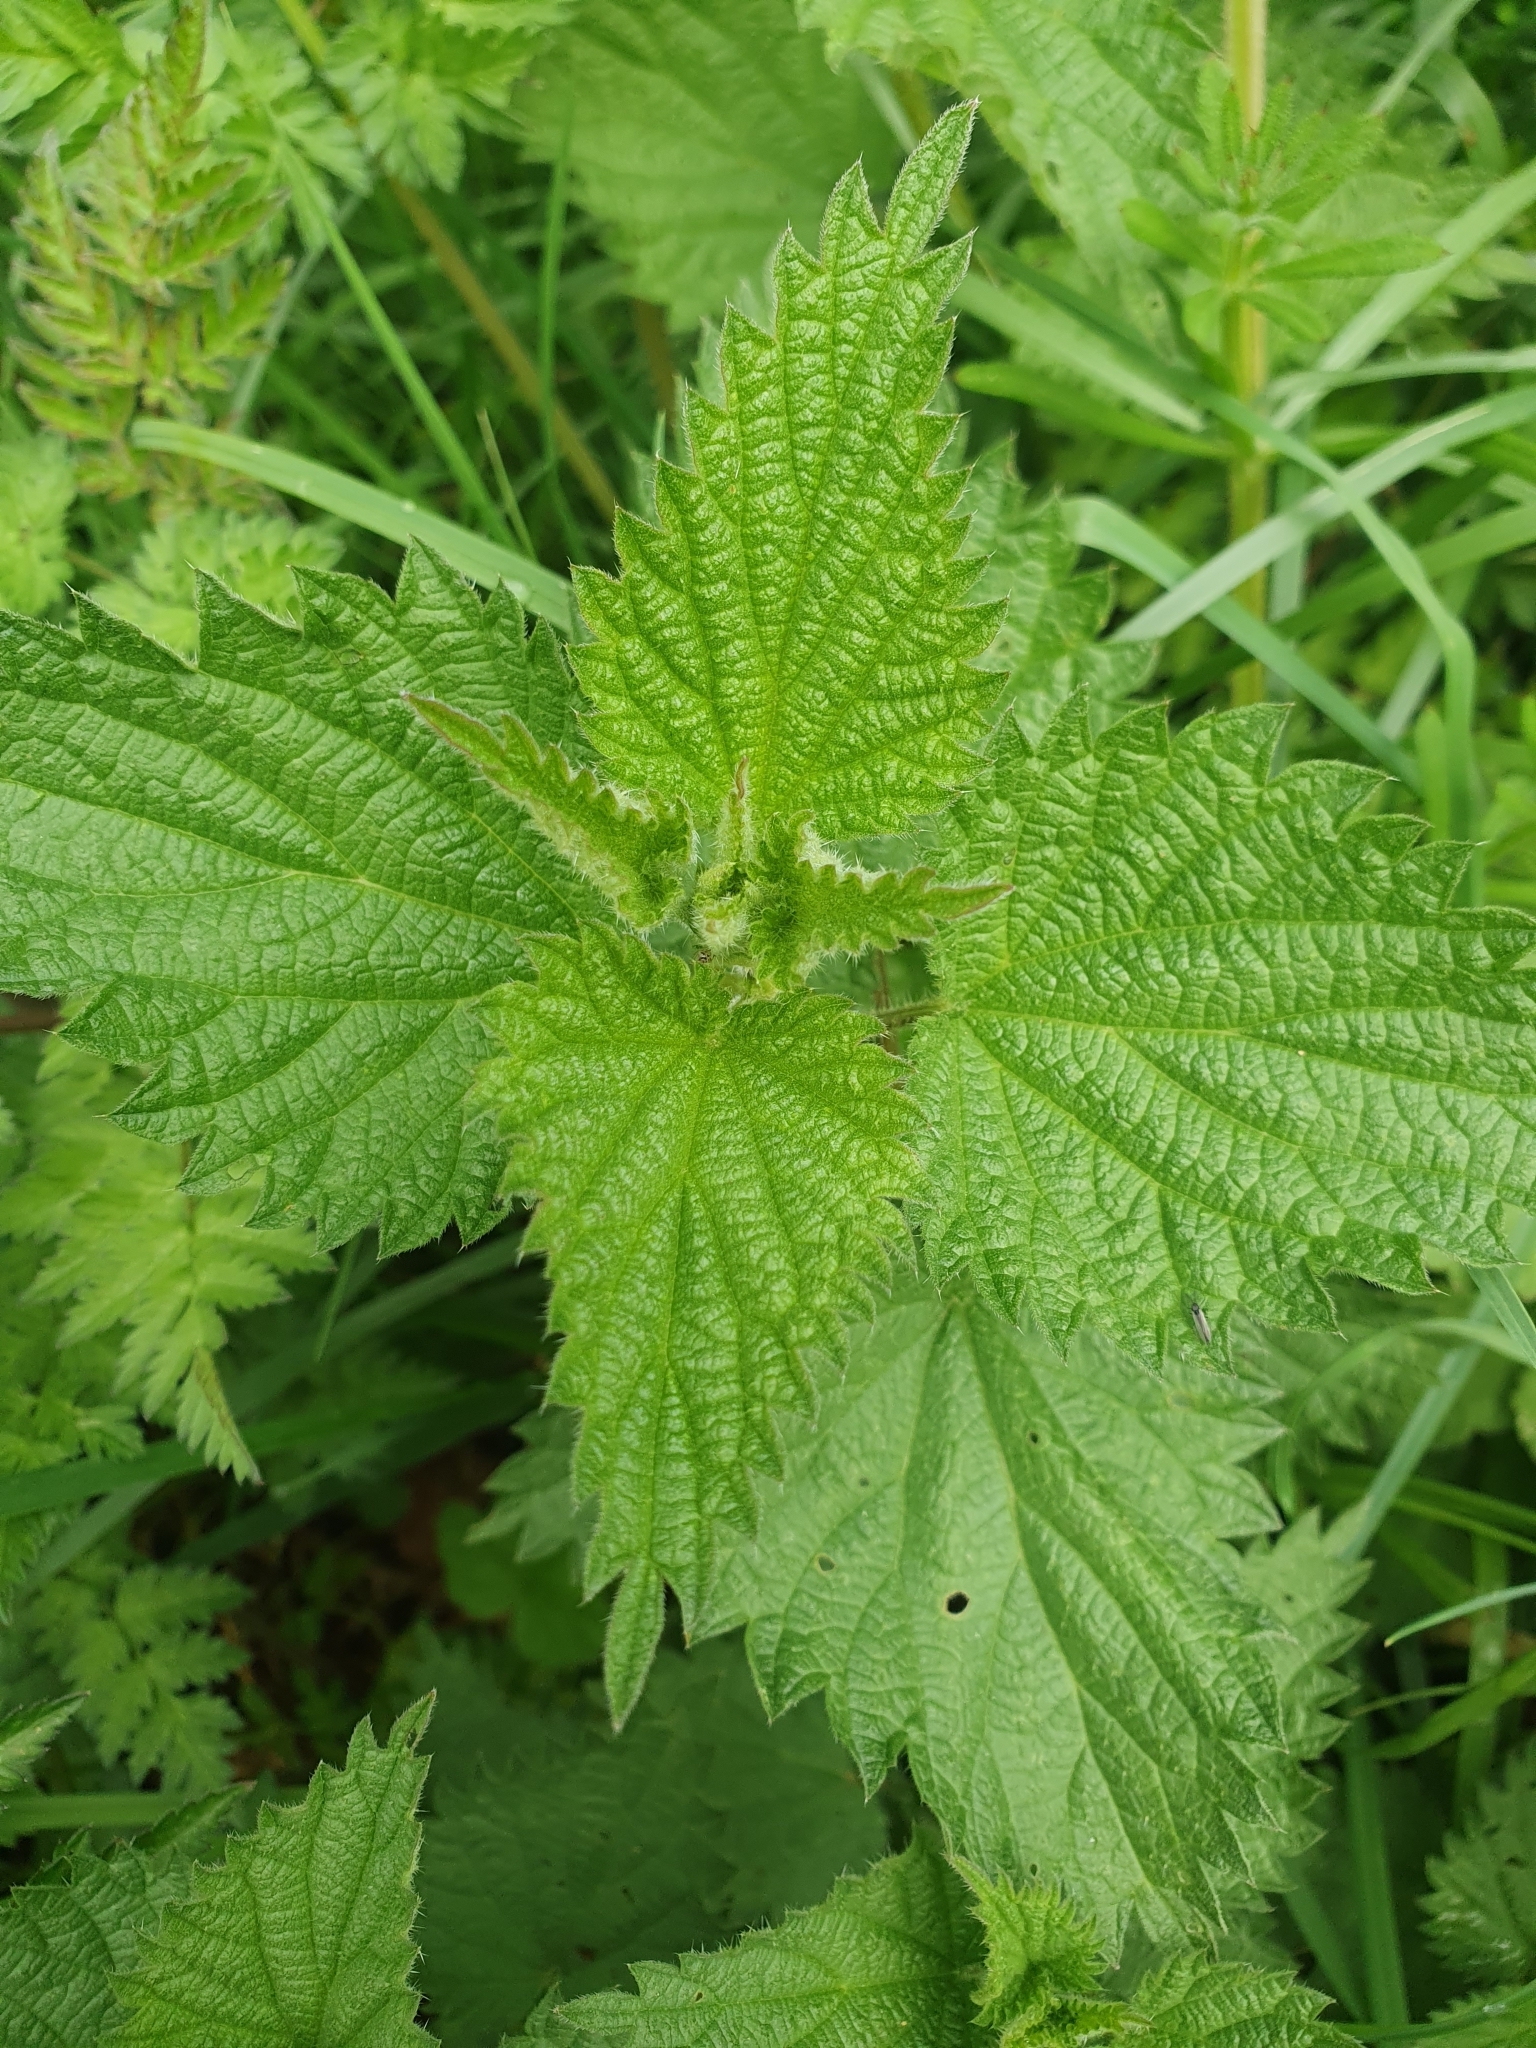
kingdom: Plantae
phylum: Tracheophyta
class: Magnoliopsida
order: Rosales
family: Urticaceae
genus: Urtica
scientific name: Urtica dioica
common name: Common nettle
